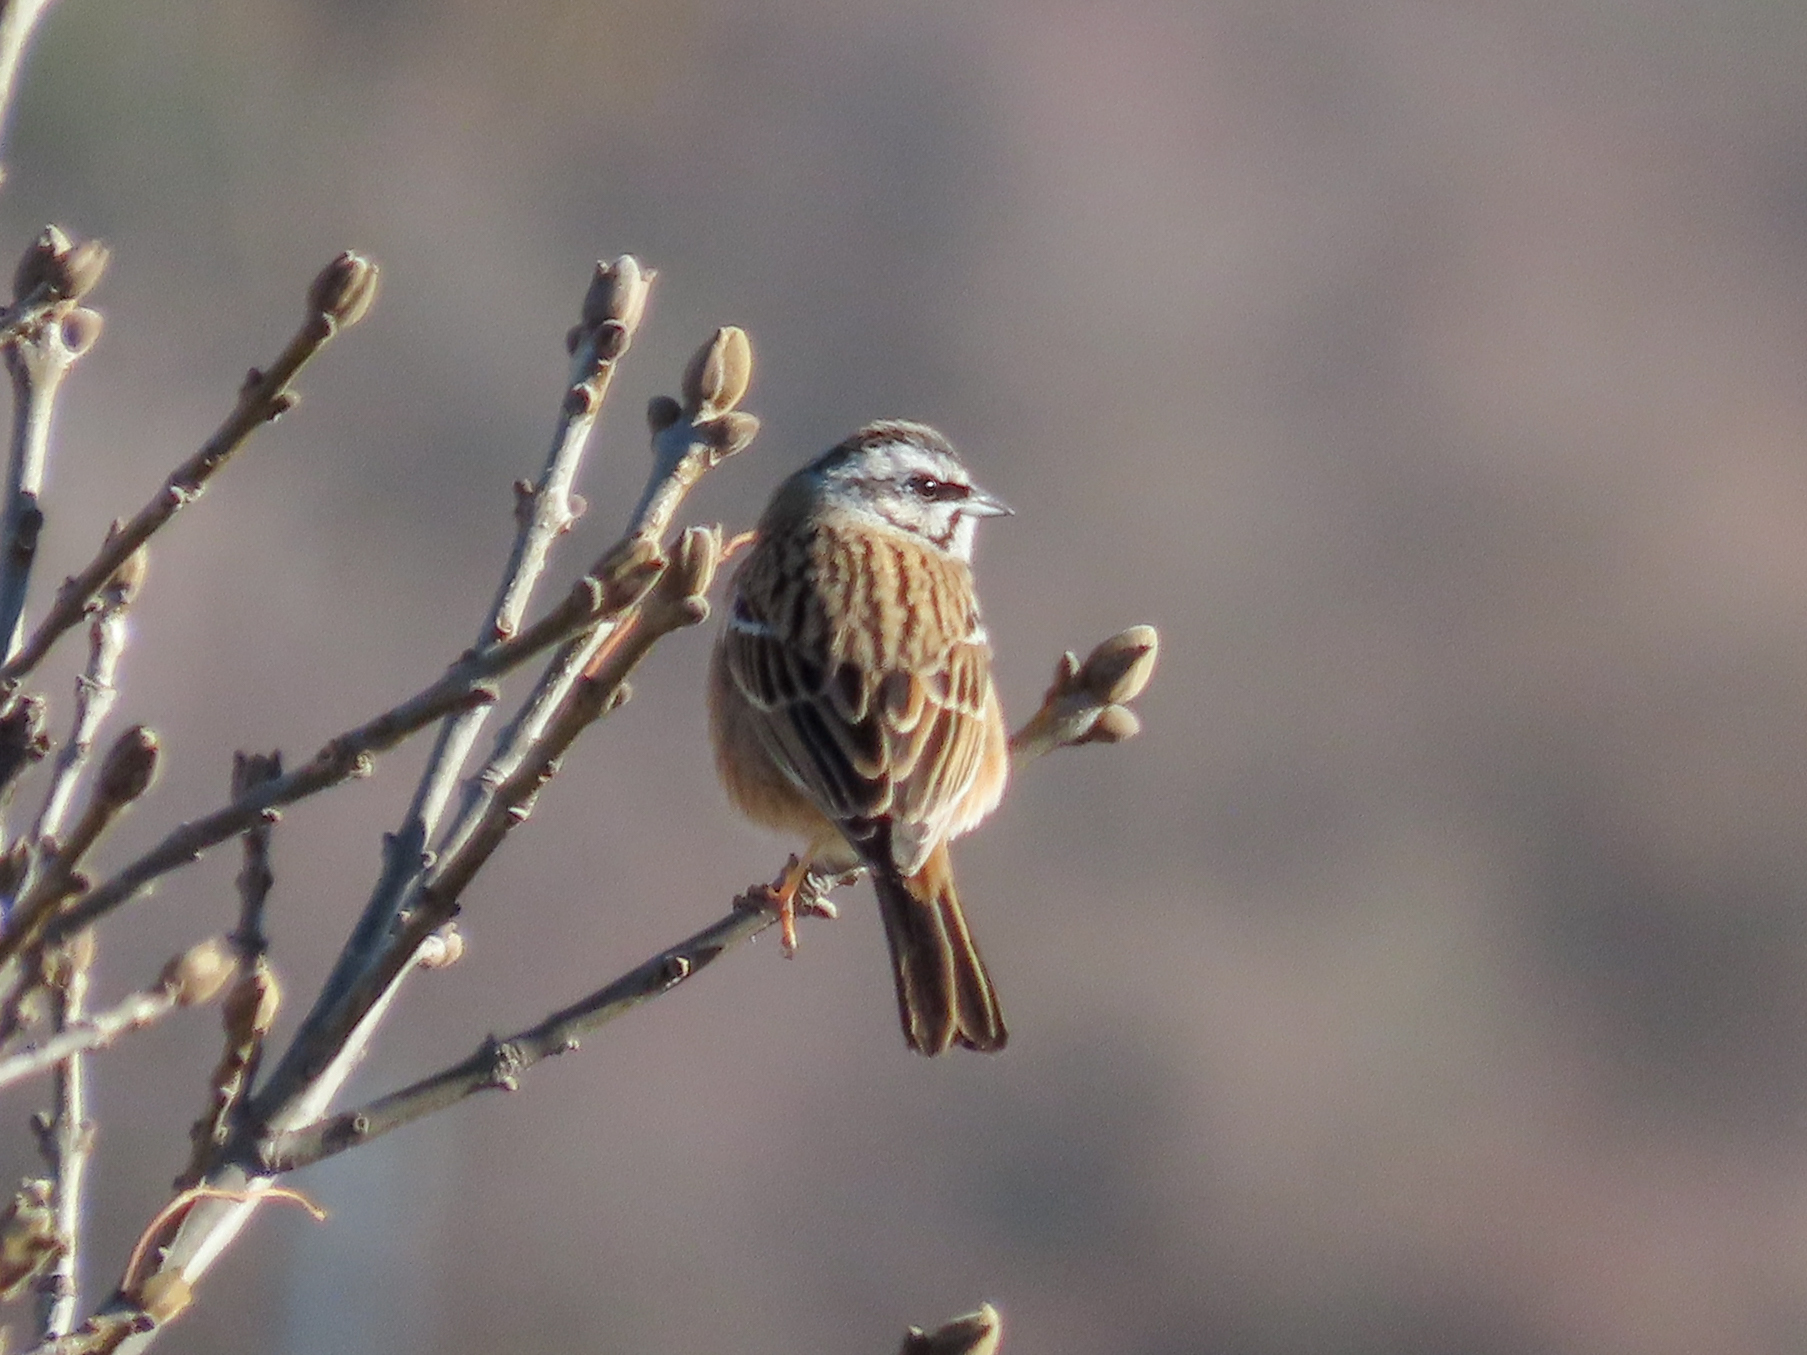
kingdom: Animalia
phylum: Chordata
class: Aves
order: Passeriformes
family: Emberizidae
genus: Emberiza
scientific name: Emberiza cia
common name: Rock bunting
